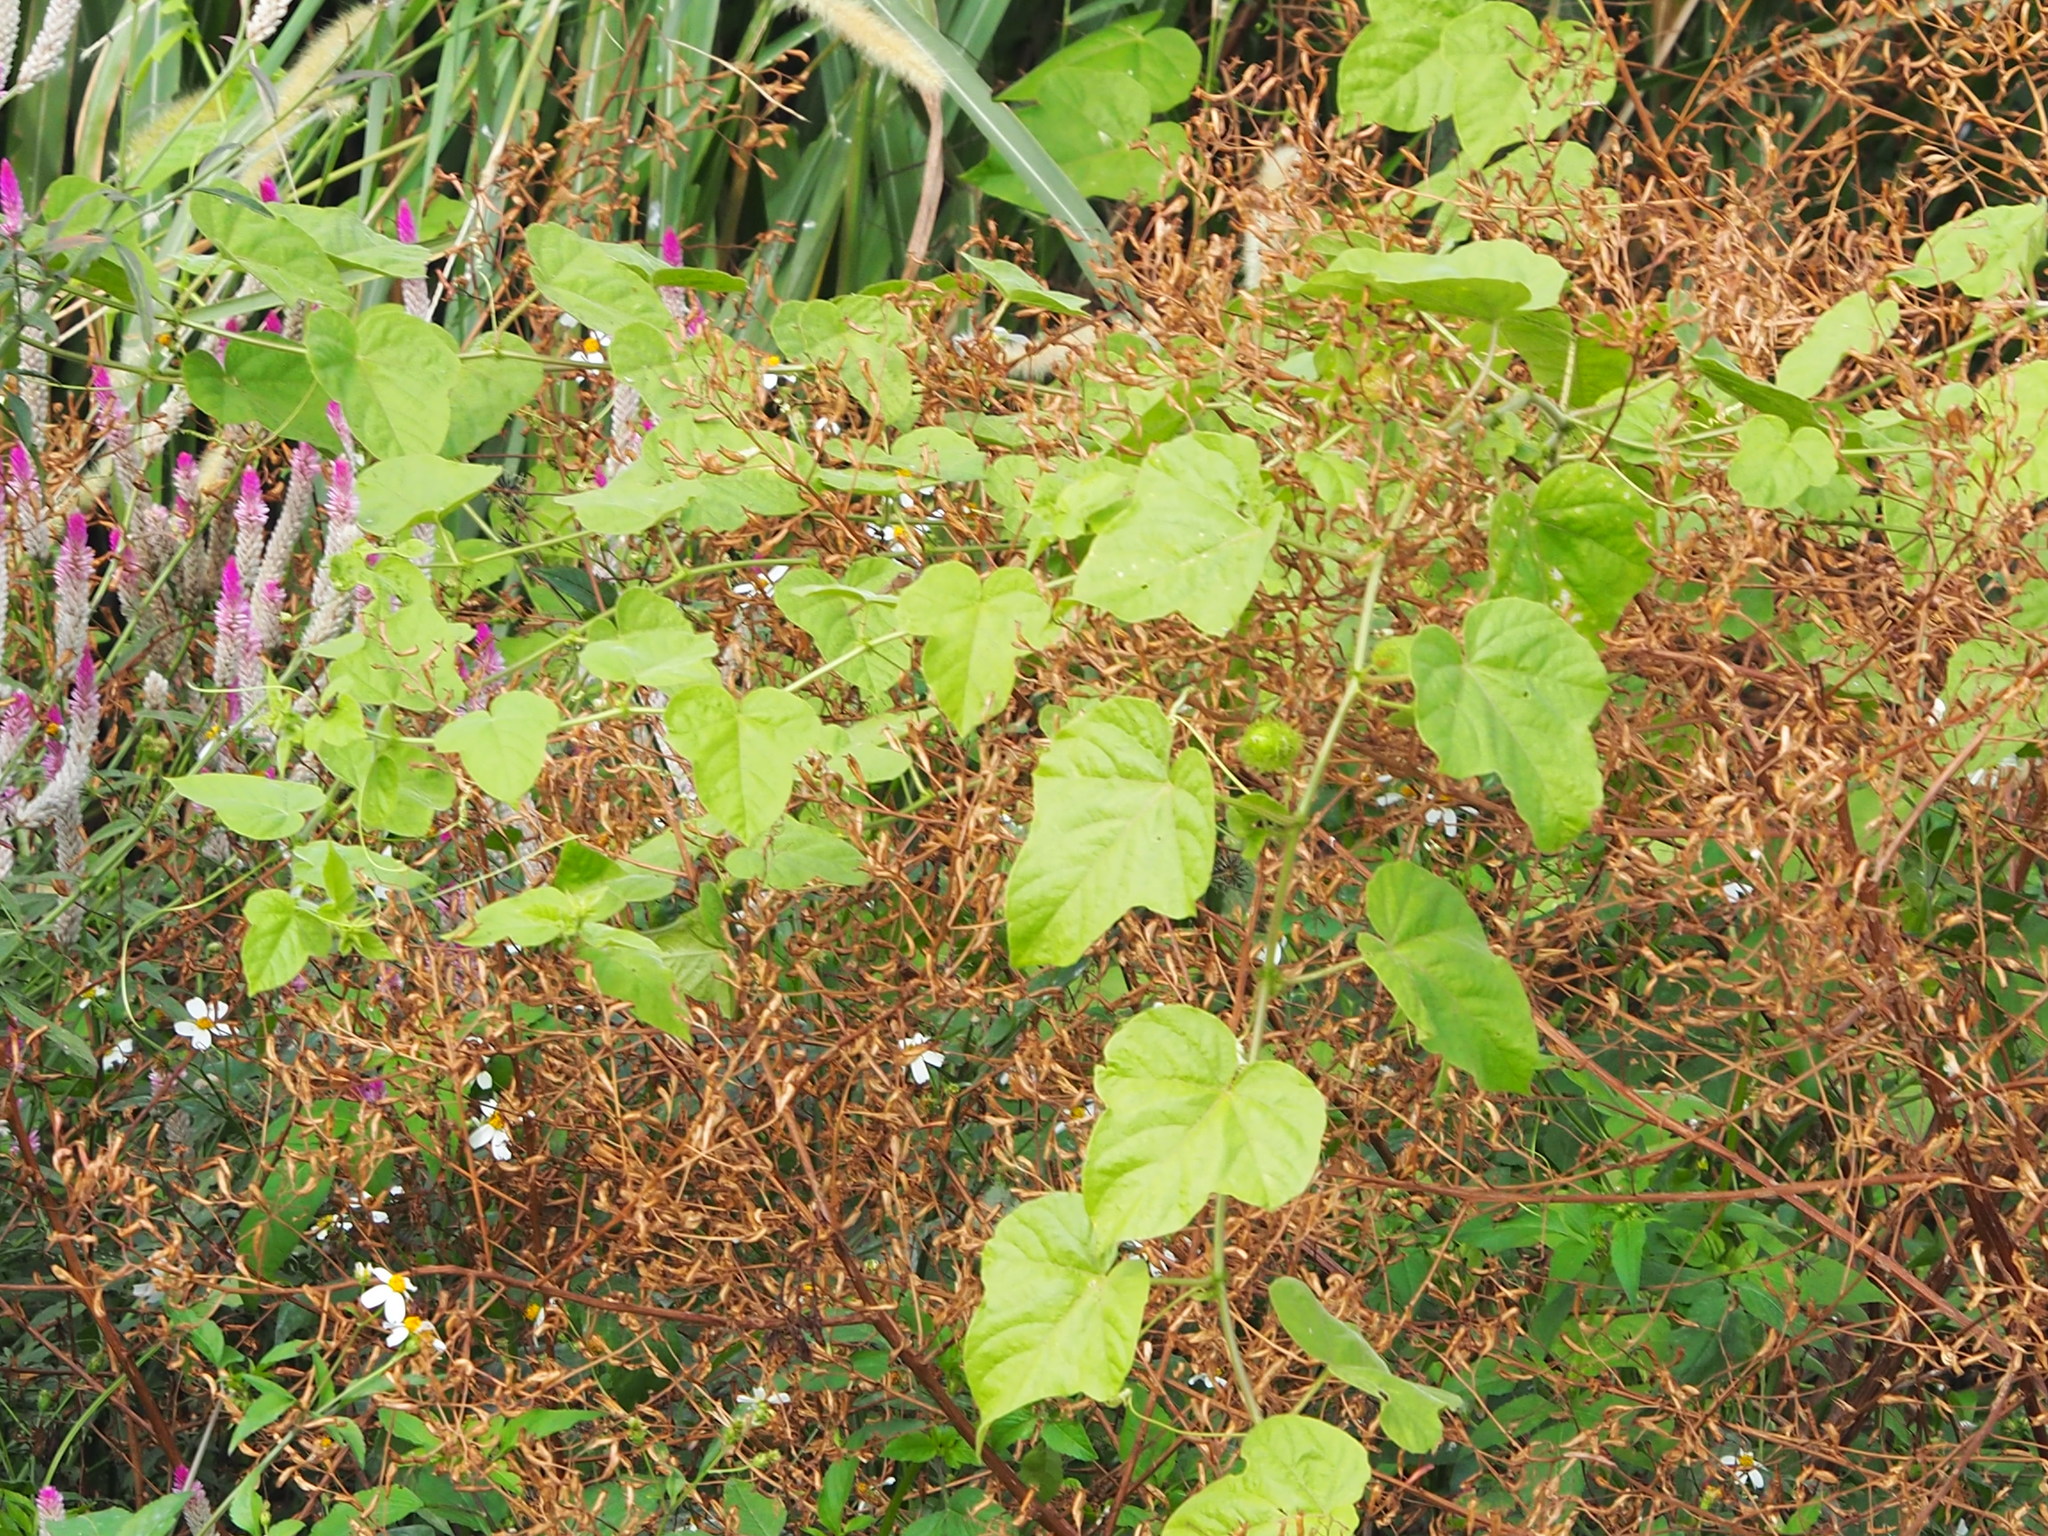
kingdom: Plantae
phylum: Tracheophyta
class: Magnoliopsida
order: Malpighiales
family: Passifloraceae
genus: Passiflora
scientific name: Passiflora vesicaria
